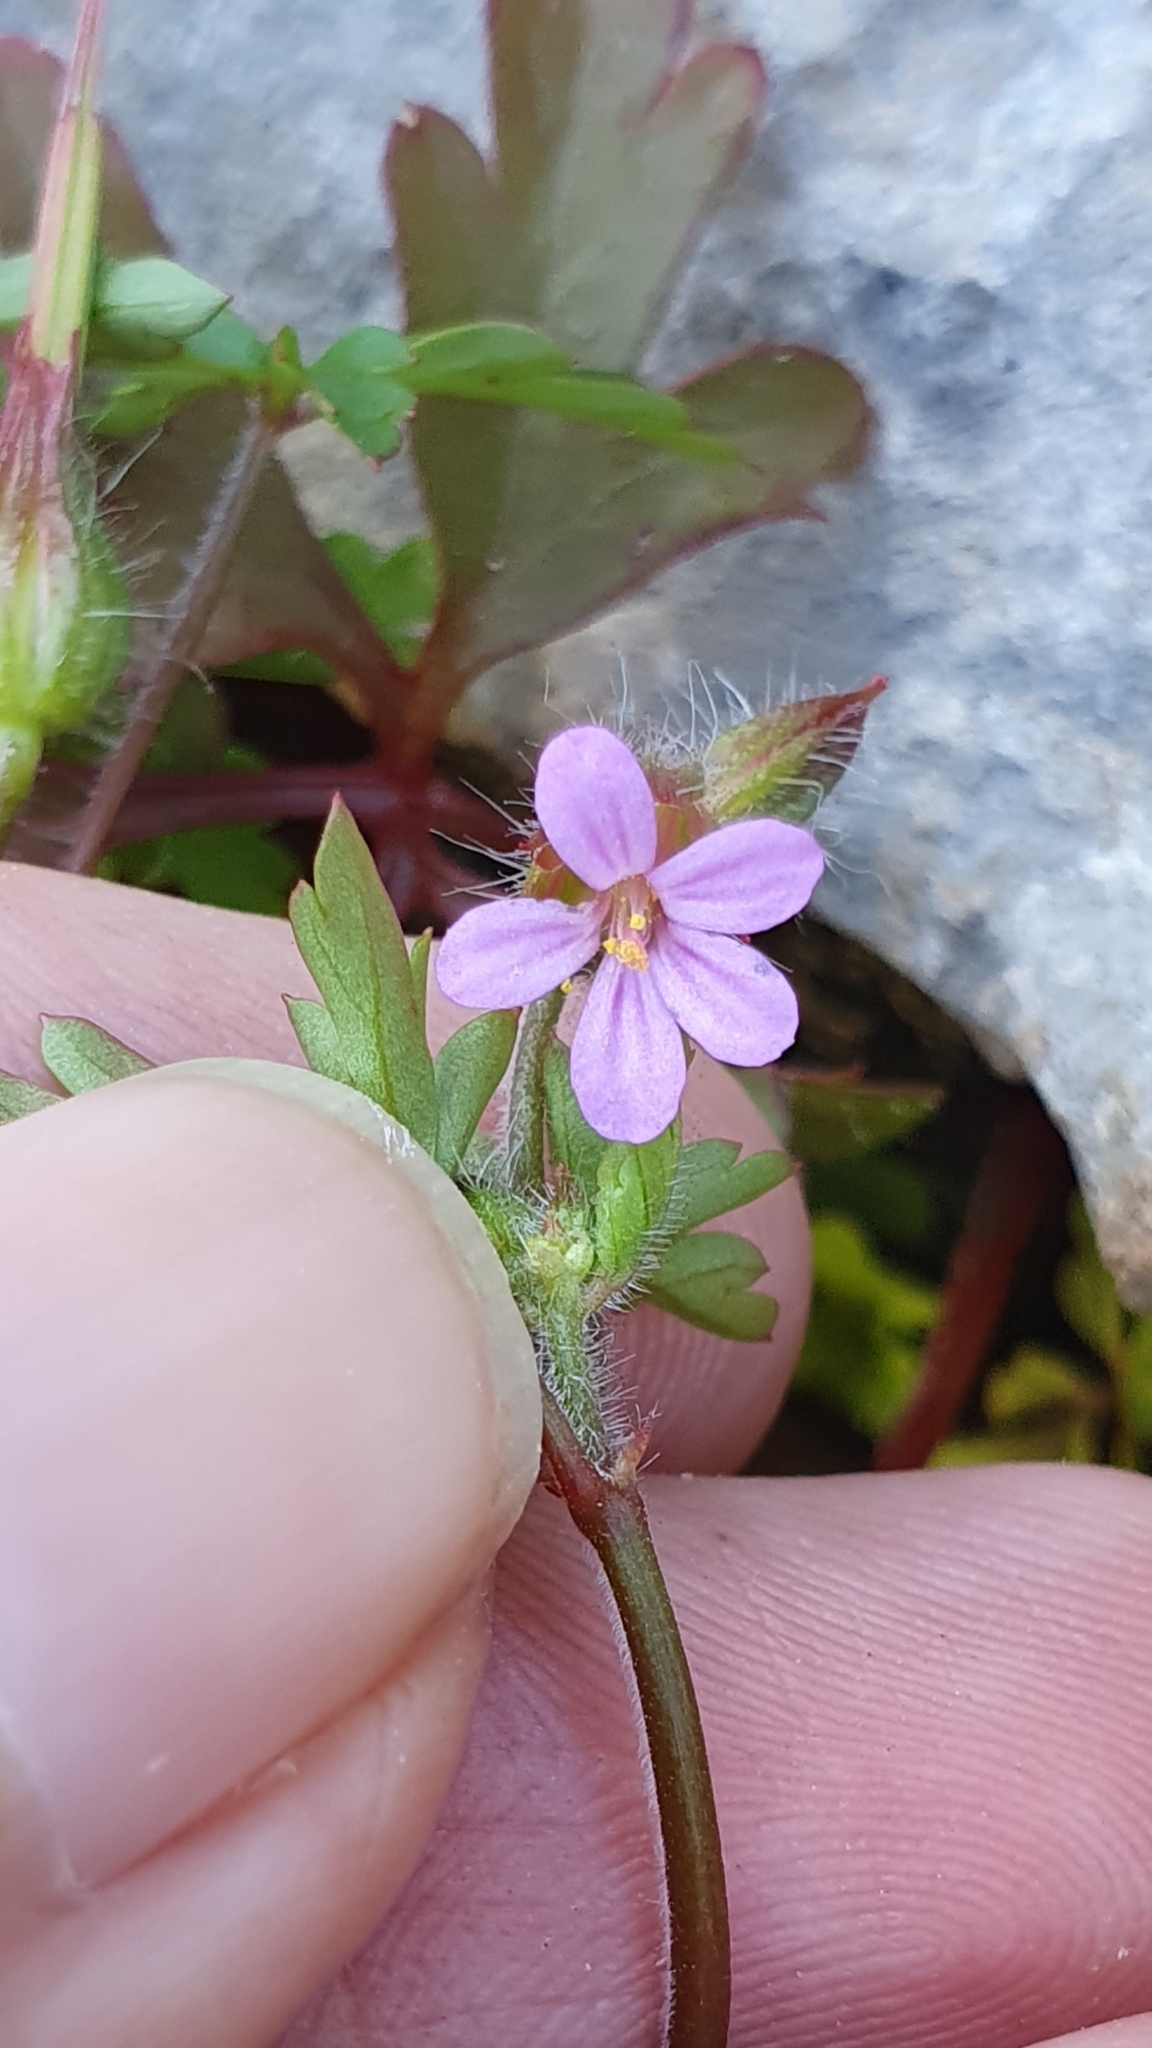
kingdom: Plantae
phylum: Tracheophyta
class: Magnoliopsida
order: Geraniales
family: Geraniaceae
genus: Geranium
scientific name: Geranium purpureum
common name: Little-robin
